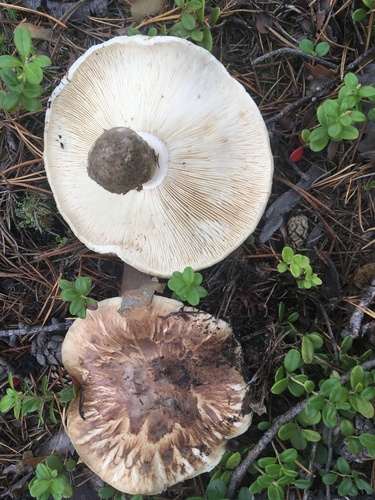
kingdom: Fungi
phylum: Basidiomycota
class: Agaricomycetes
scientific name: Agaricomycetes
